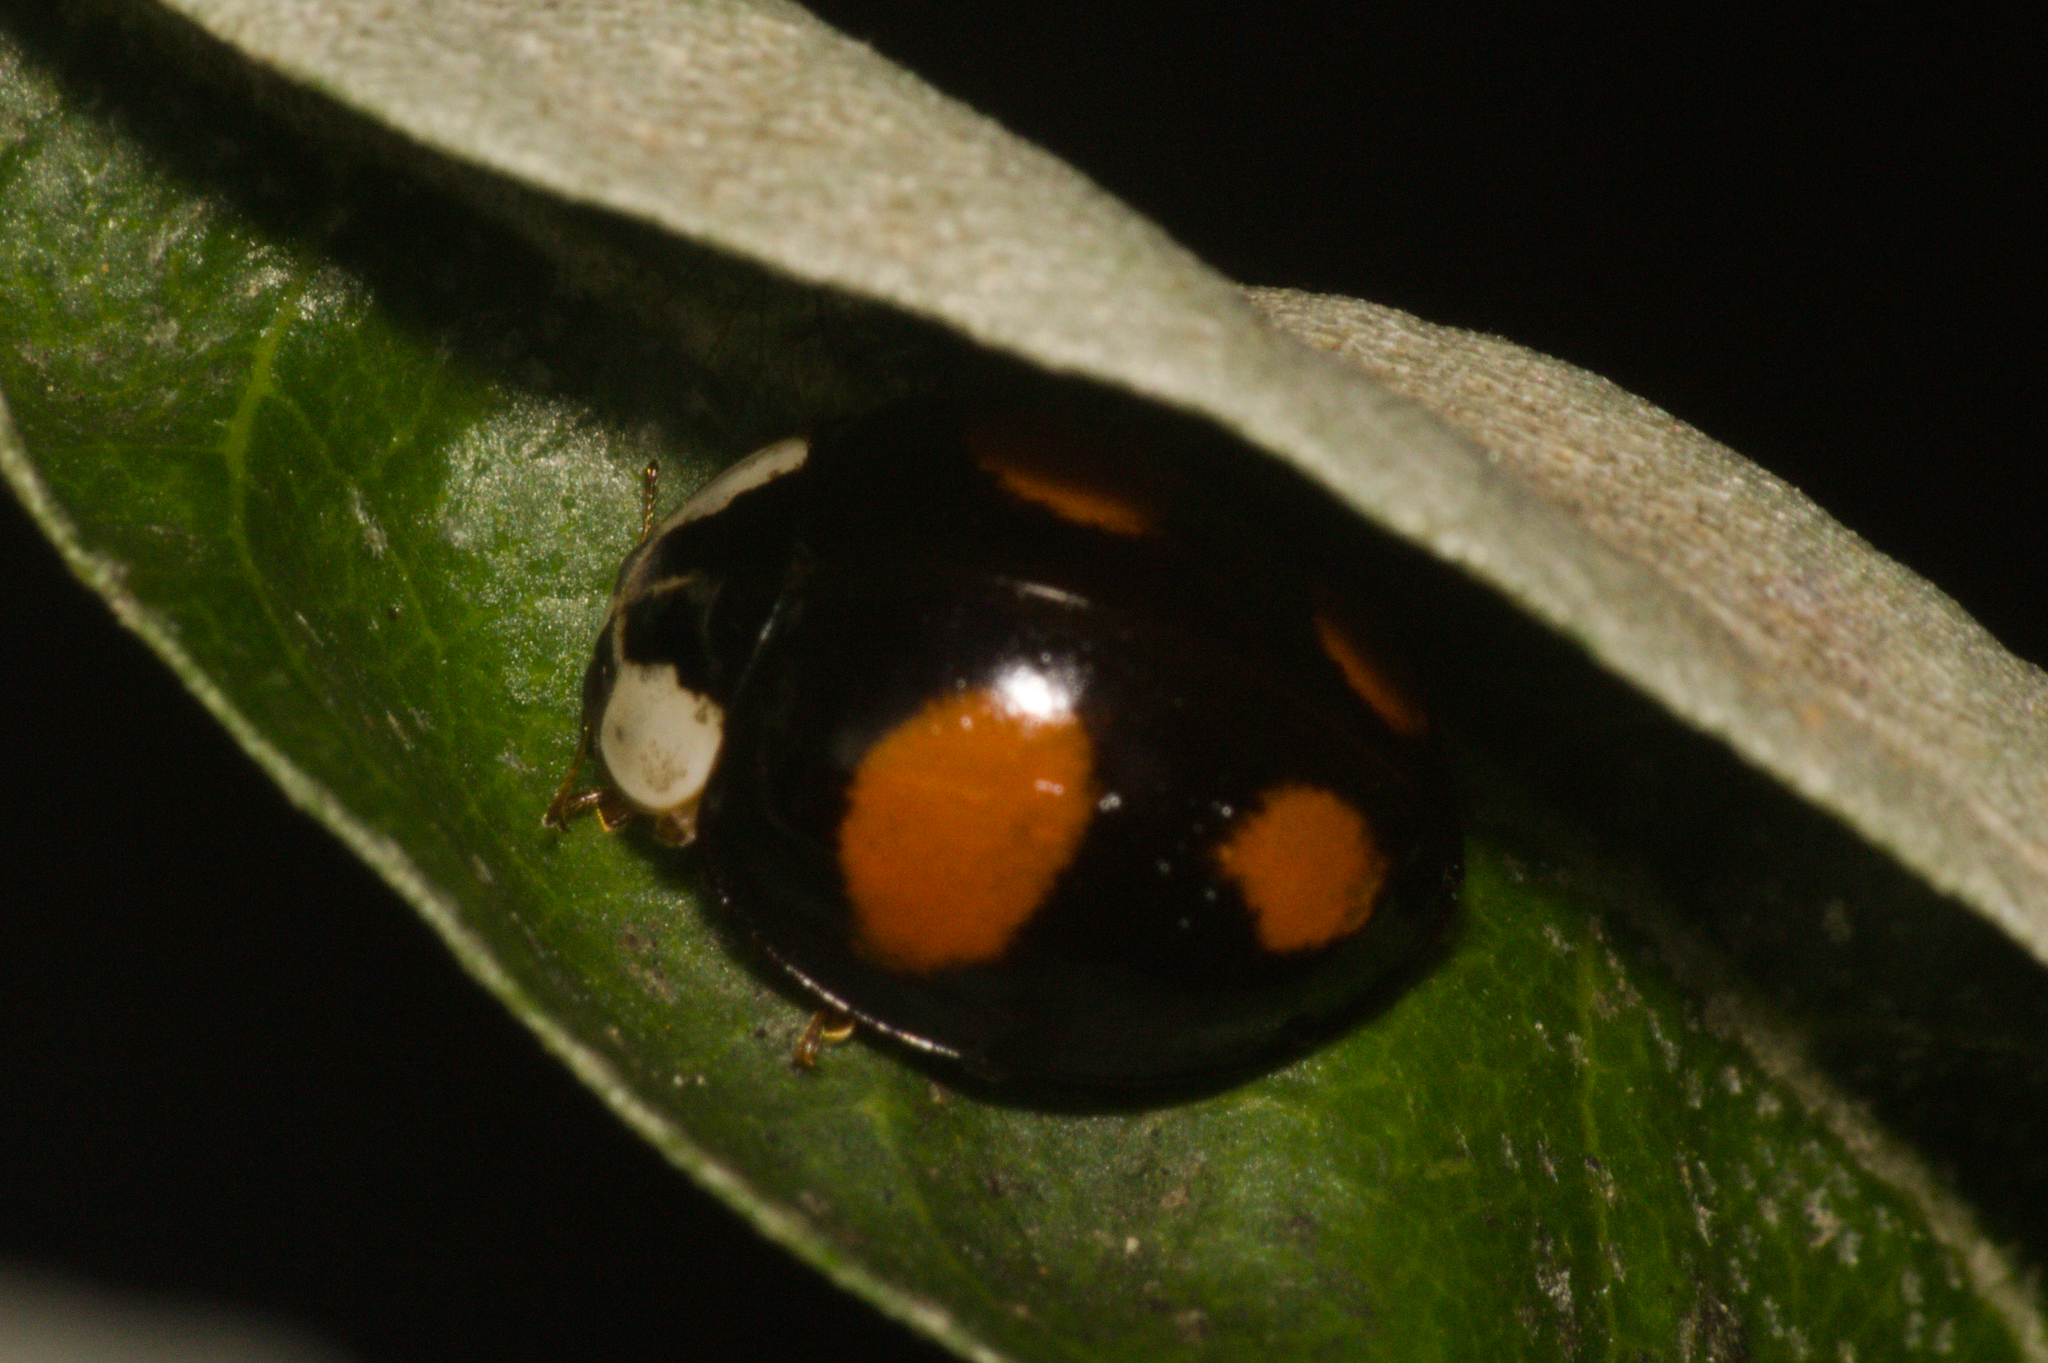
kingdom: Animalia
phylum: Arthropoda
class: Insecta
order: Coleoptera
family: Coccinellidae
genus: Harmonia
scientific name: Harmonia axyridis
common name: Harlequin ladybird
